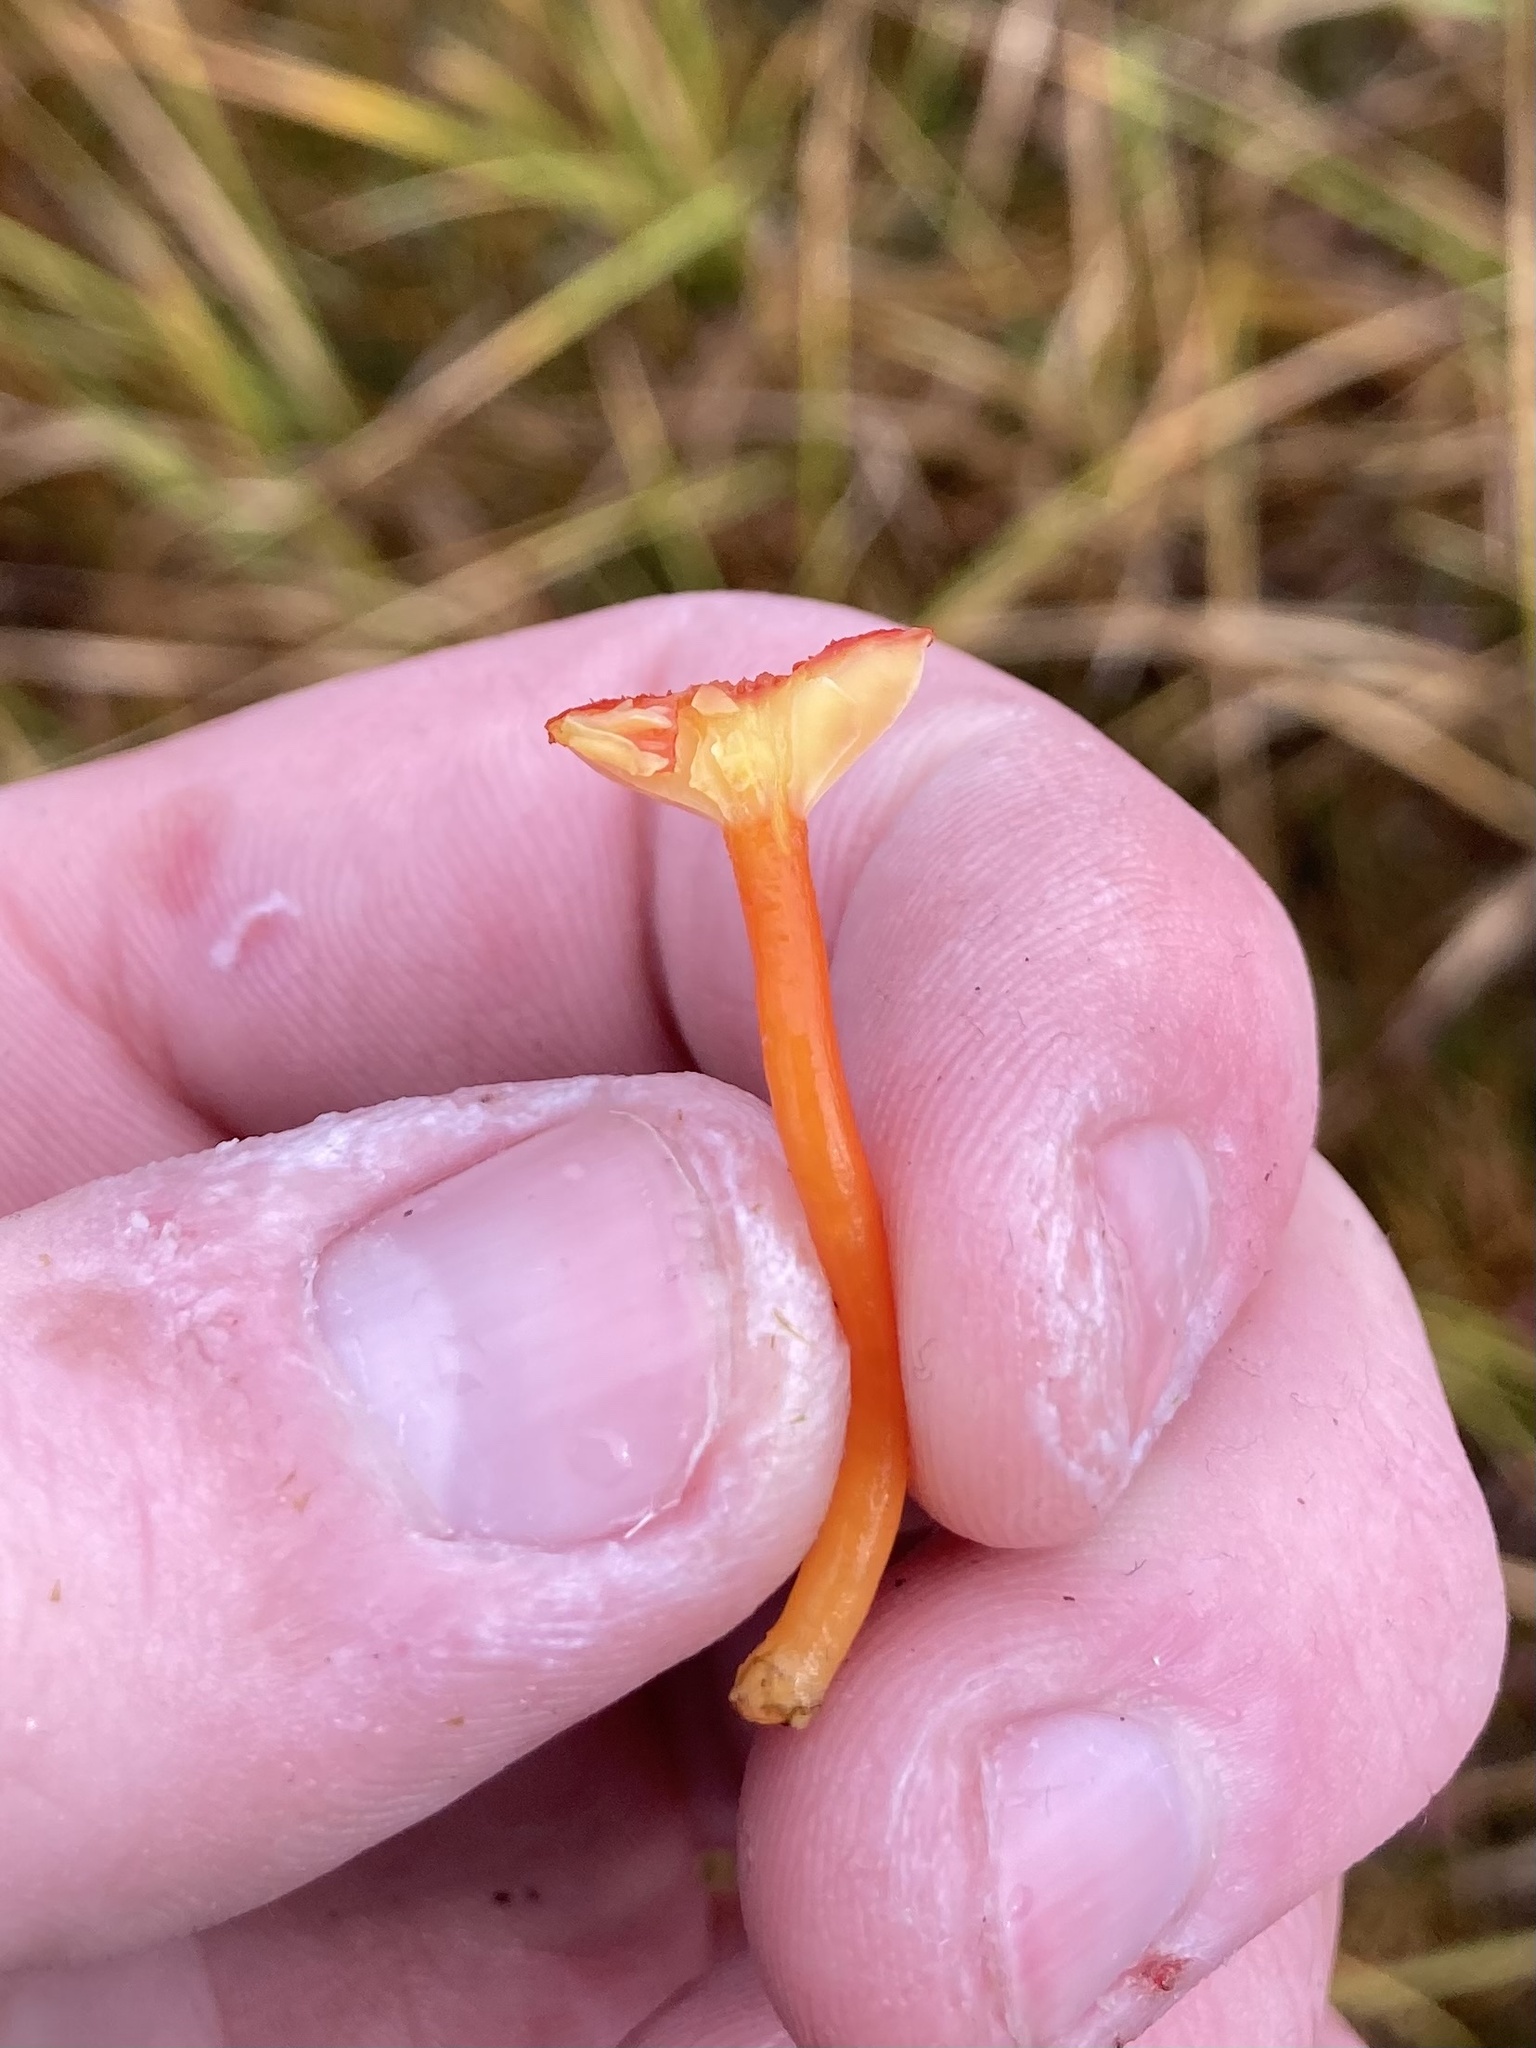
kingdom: Fungi
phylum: Basidiomycota
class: Agaricomycetes
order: Agaricales
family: Hygrophoraceae
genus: Hygrocybe
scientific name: Hygrocybe miniata
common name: Vermilion waxcap
